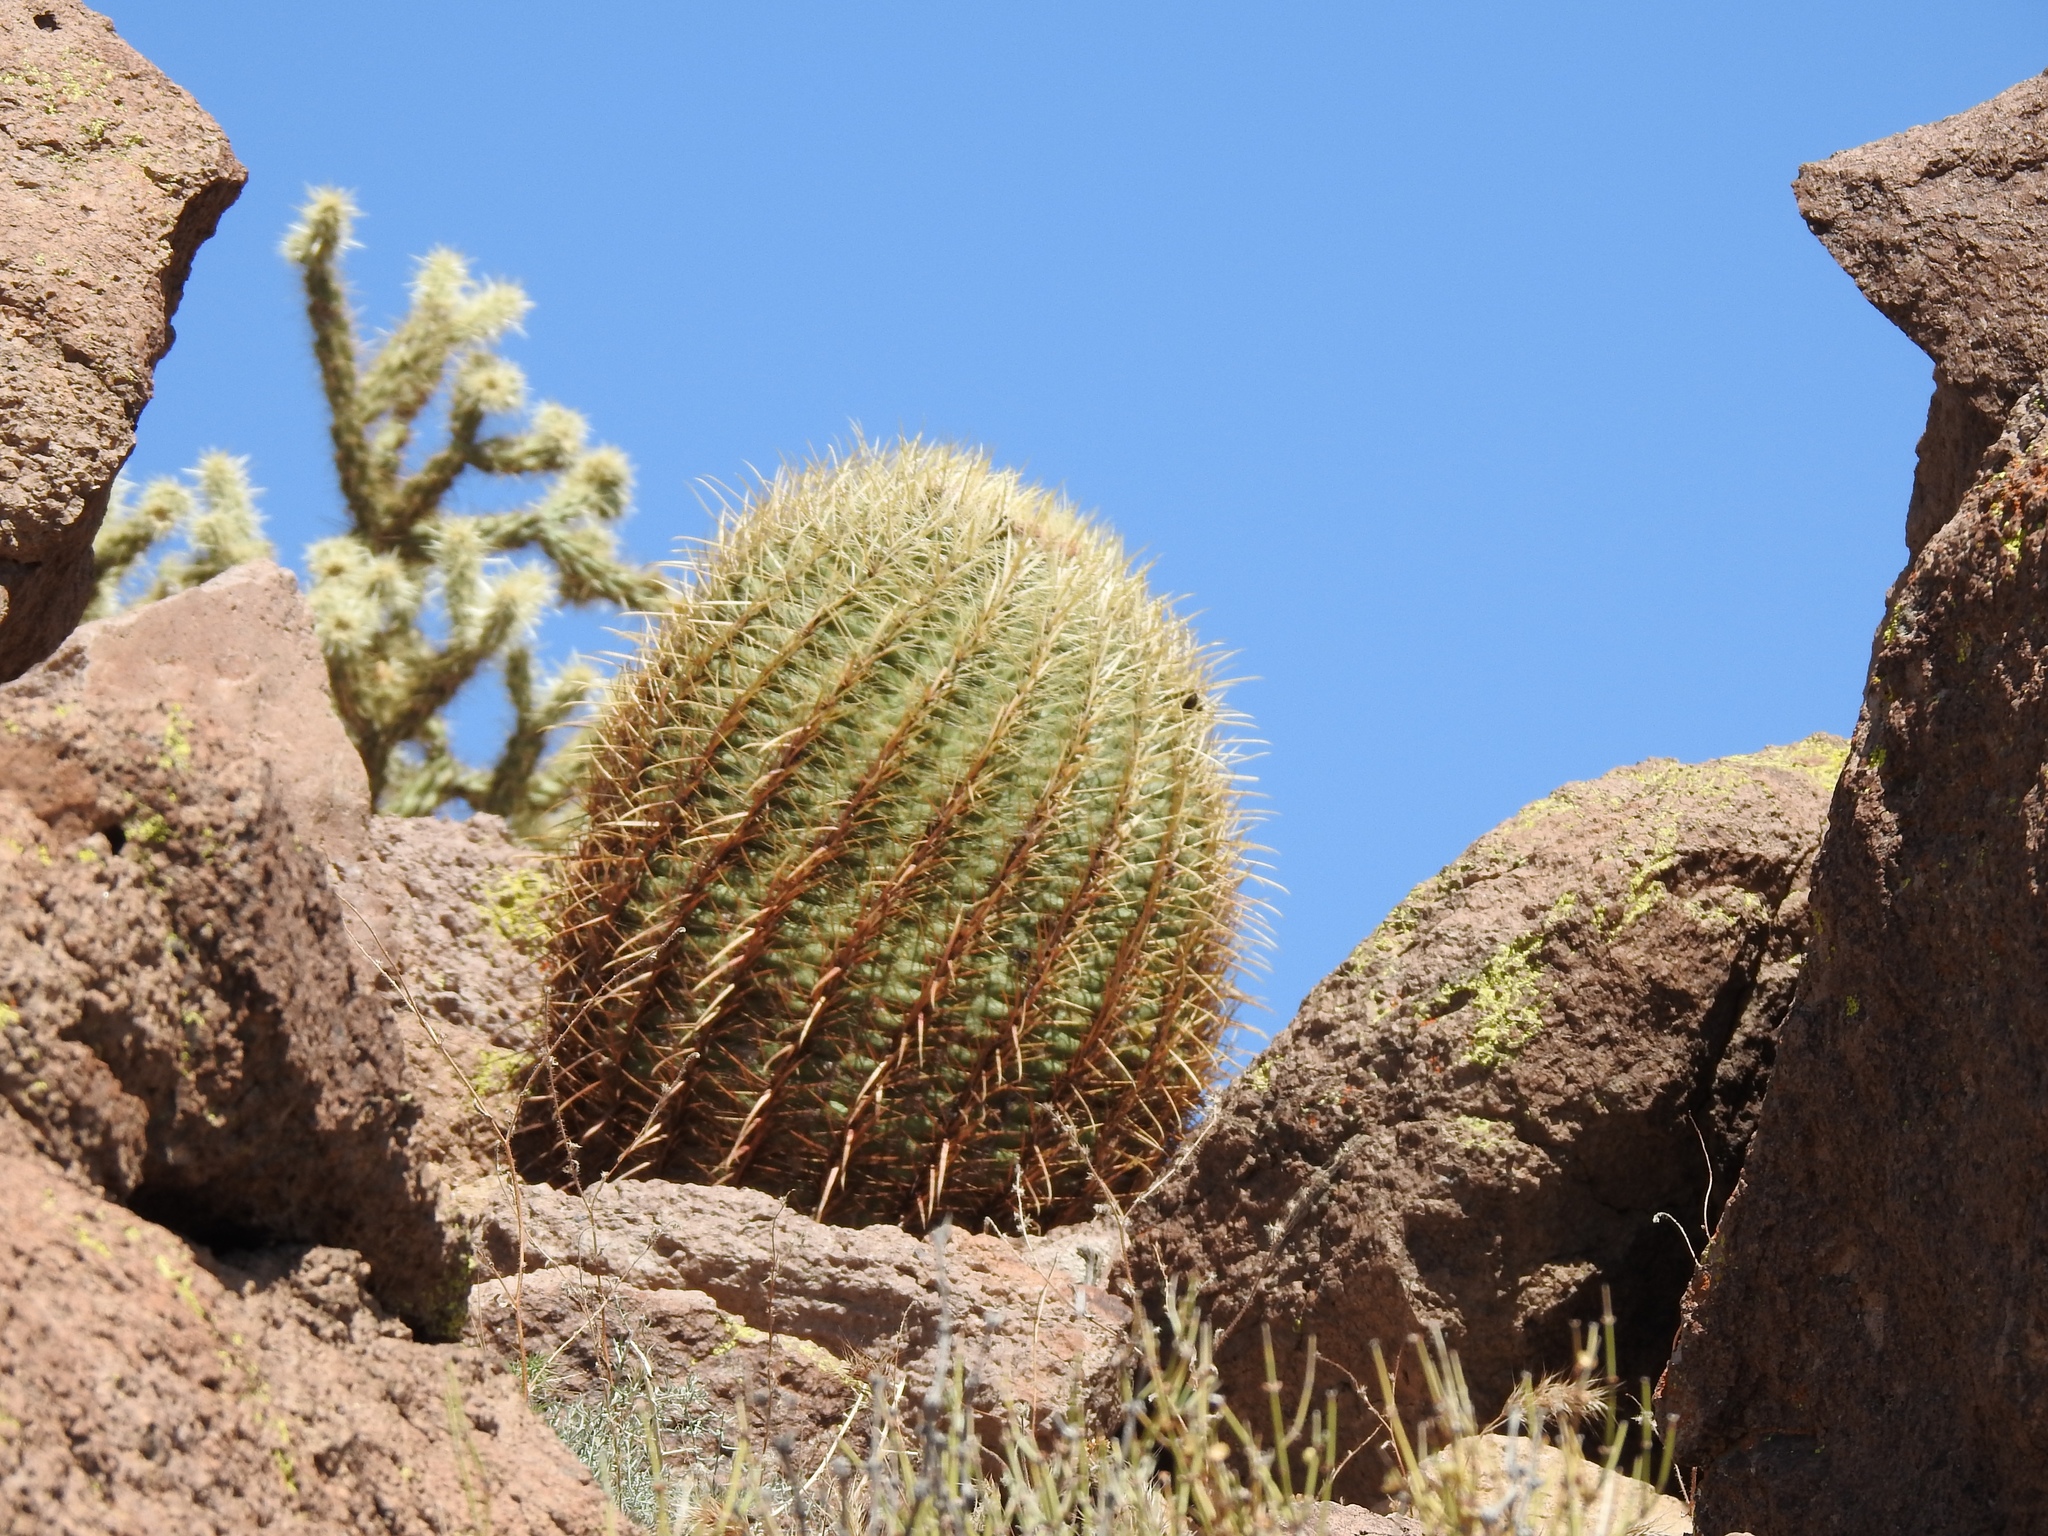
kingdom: Plantae
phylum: Tracheophyta
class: Magnoliopsida
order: Caryophyllales
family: Cactaceae
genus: Ferocactus
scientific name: Ferocactus cylindraceus
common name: California barrel cactus
